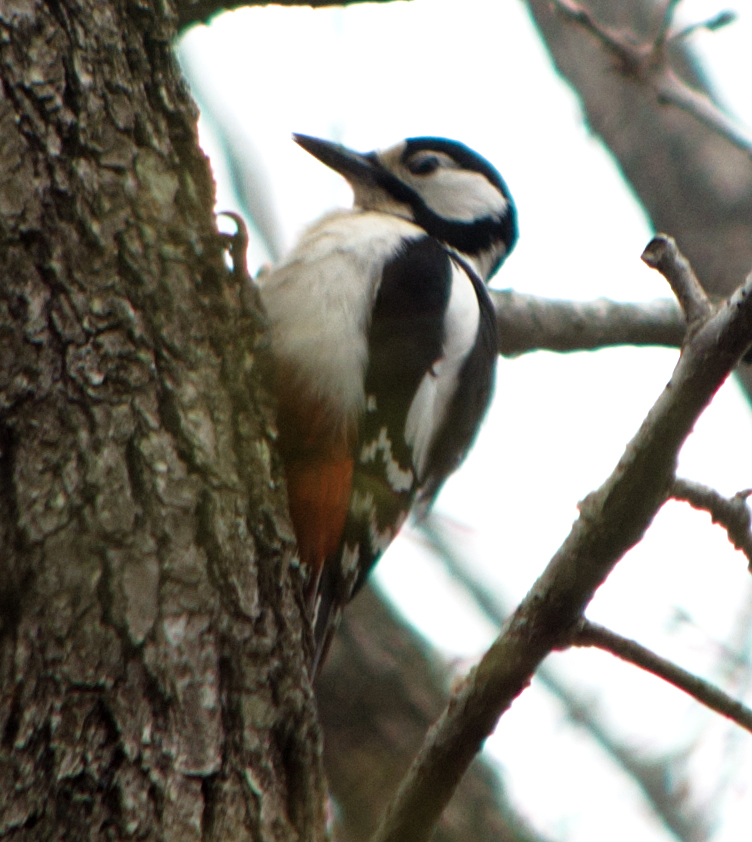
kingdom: Animalia
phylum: Chordata
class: Aves
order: Piciformes
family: Picidae
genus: Dendrocopos
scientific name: Dendrocopos major
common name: Great spotted woodpecker
